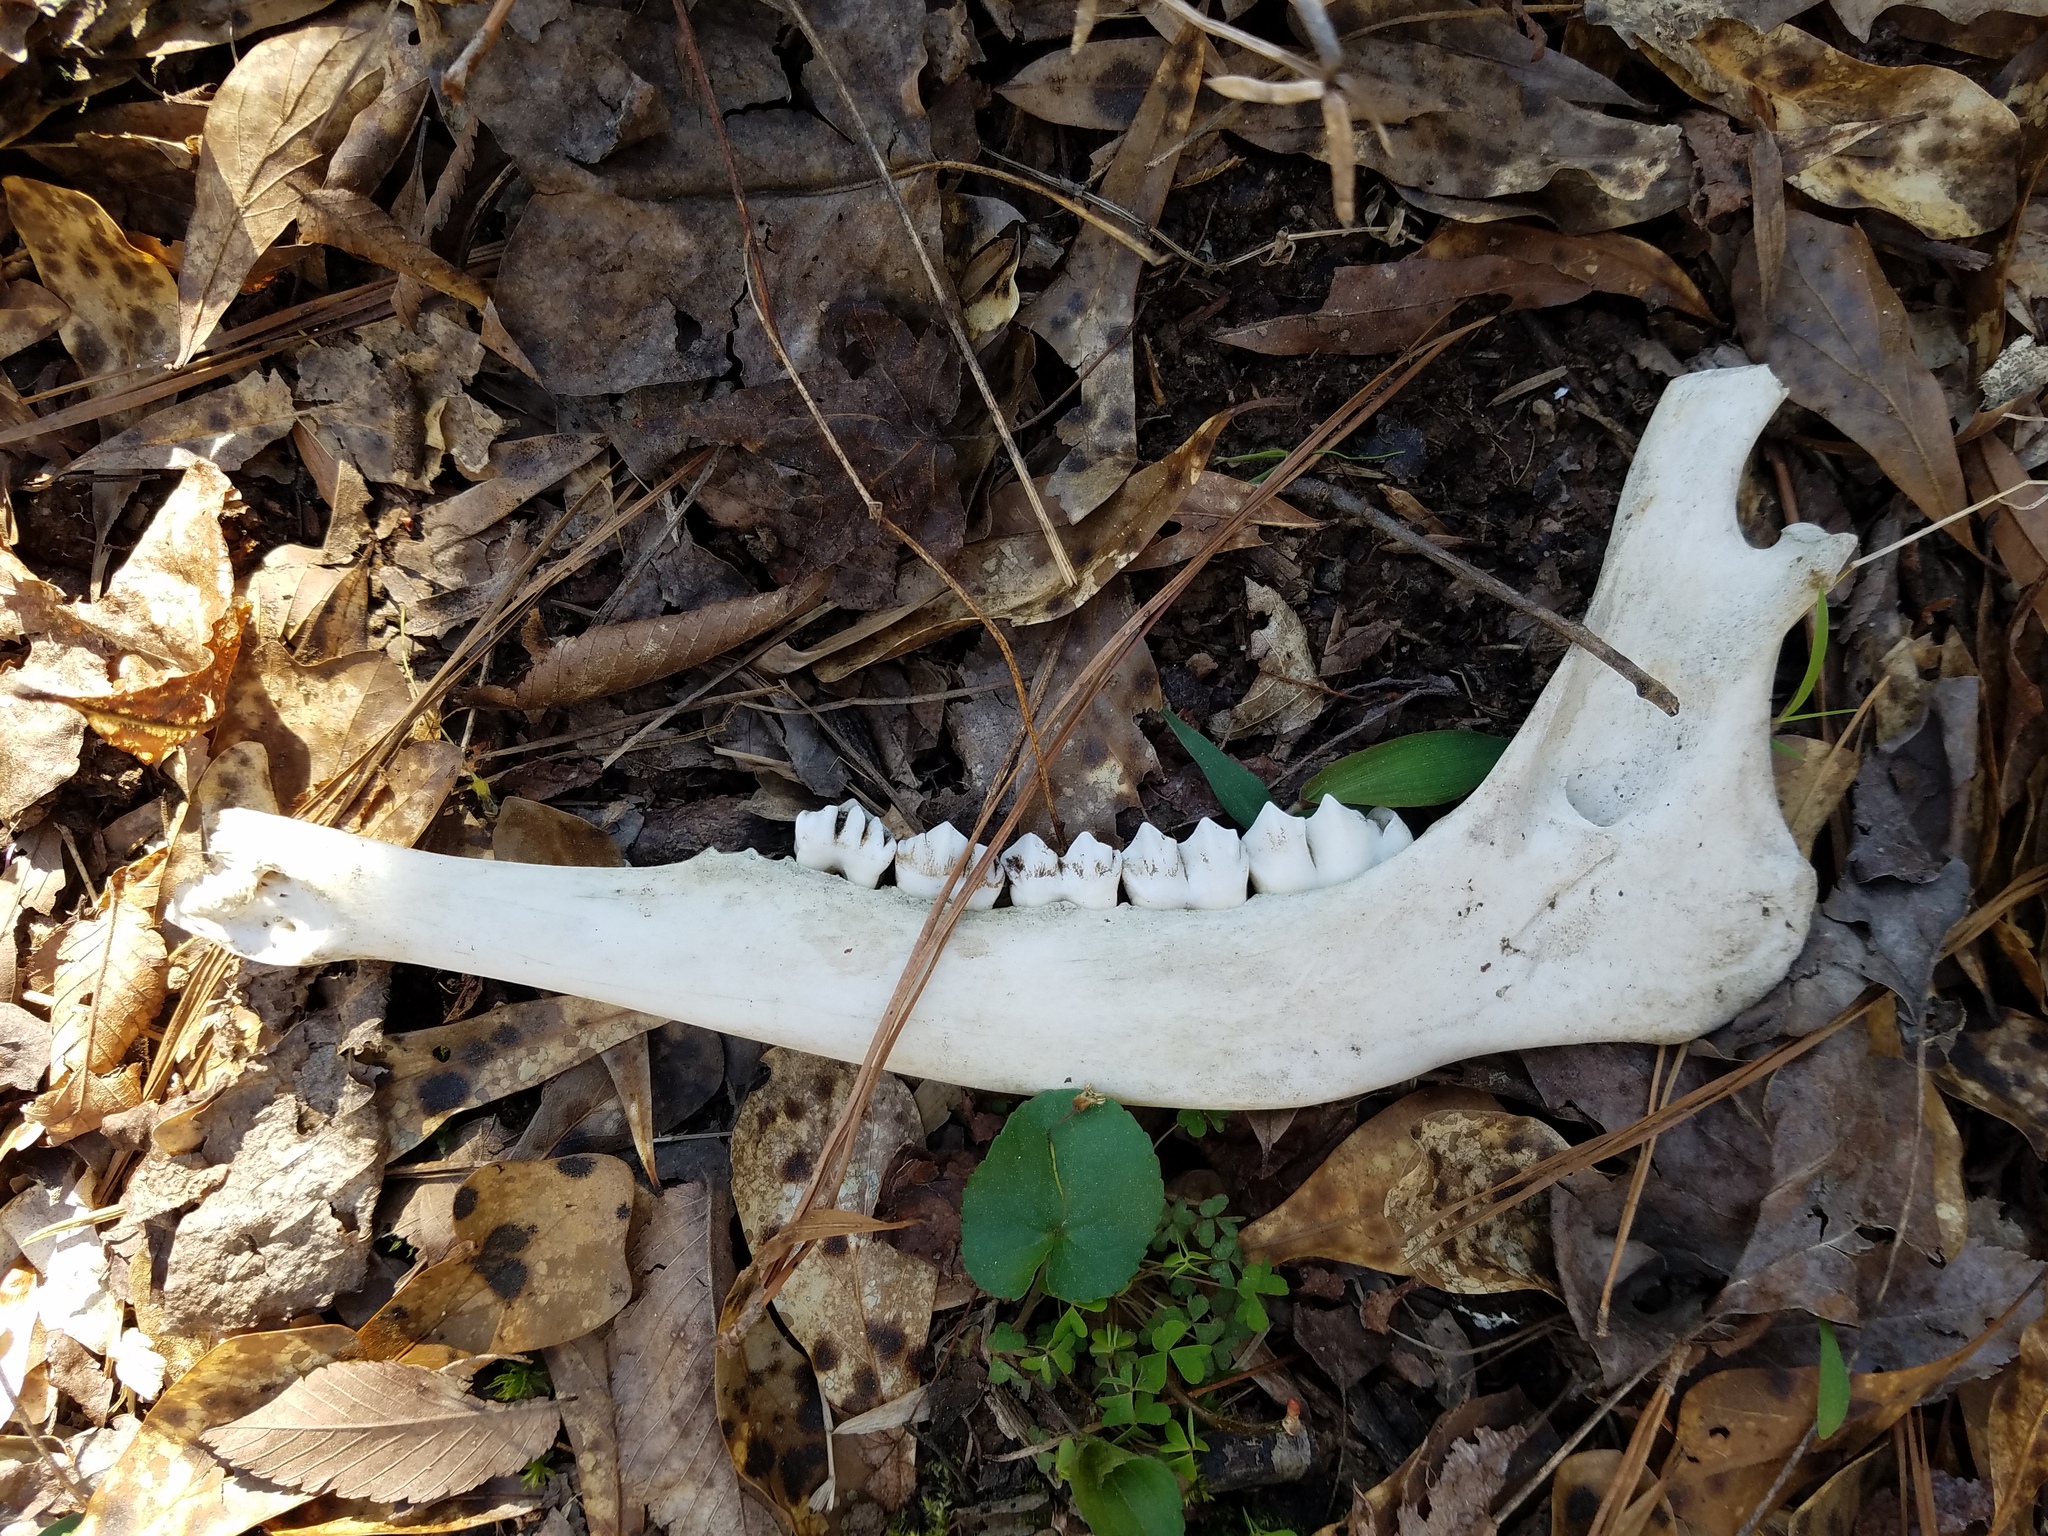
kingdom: Animalia
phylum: Chordata
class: Mammalia
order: Artiodactyla
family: Cervidae
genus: Odocoileus
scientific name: Odocoileus virginianus
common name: White-tailed deer
